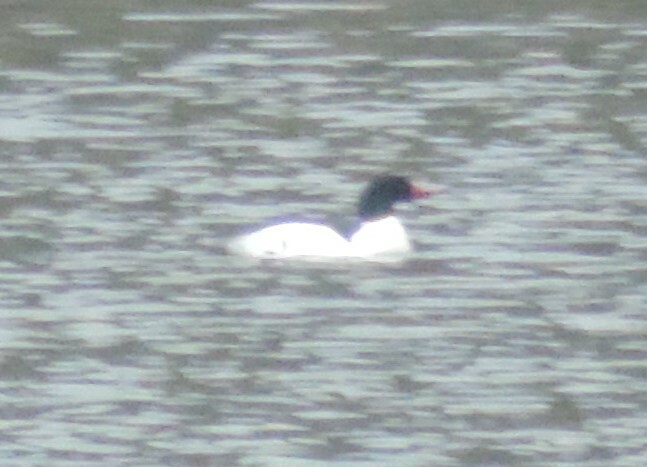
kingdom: Animalia
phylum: Chordata
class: Aves
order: Anseriformes
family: Anatidae
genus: Mergus
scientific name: Mergus merganser
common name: Common merganser
